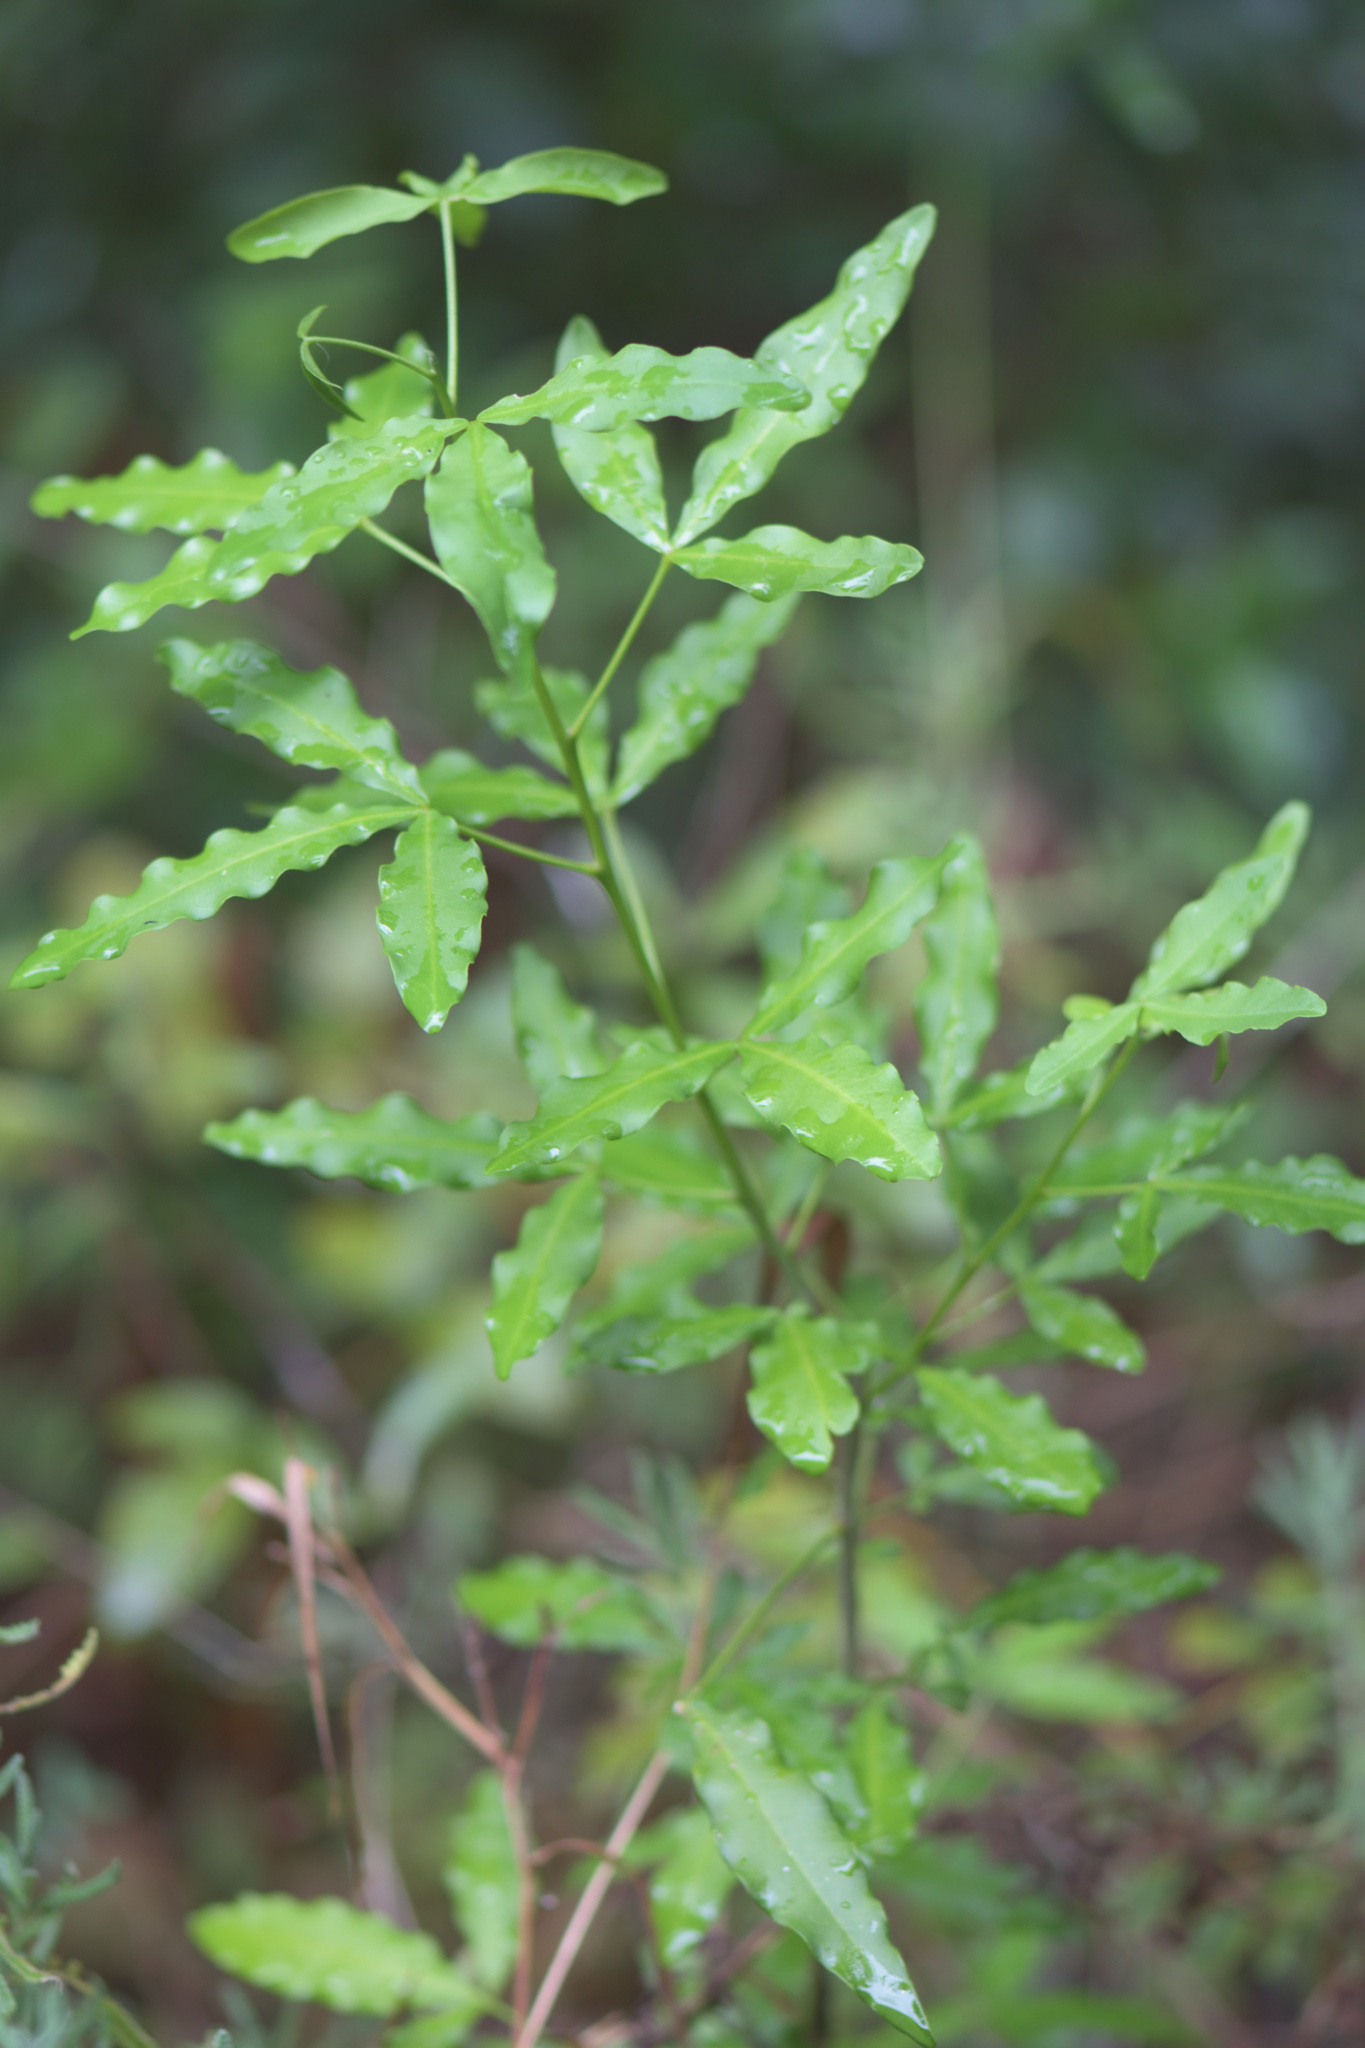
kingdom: Plantae
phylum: Tracheophyta
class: Magnoliopsida
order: Sapindales
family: Rutaceae
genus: Vepris
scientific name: Vepris lanceolata
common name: White ironwood
